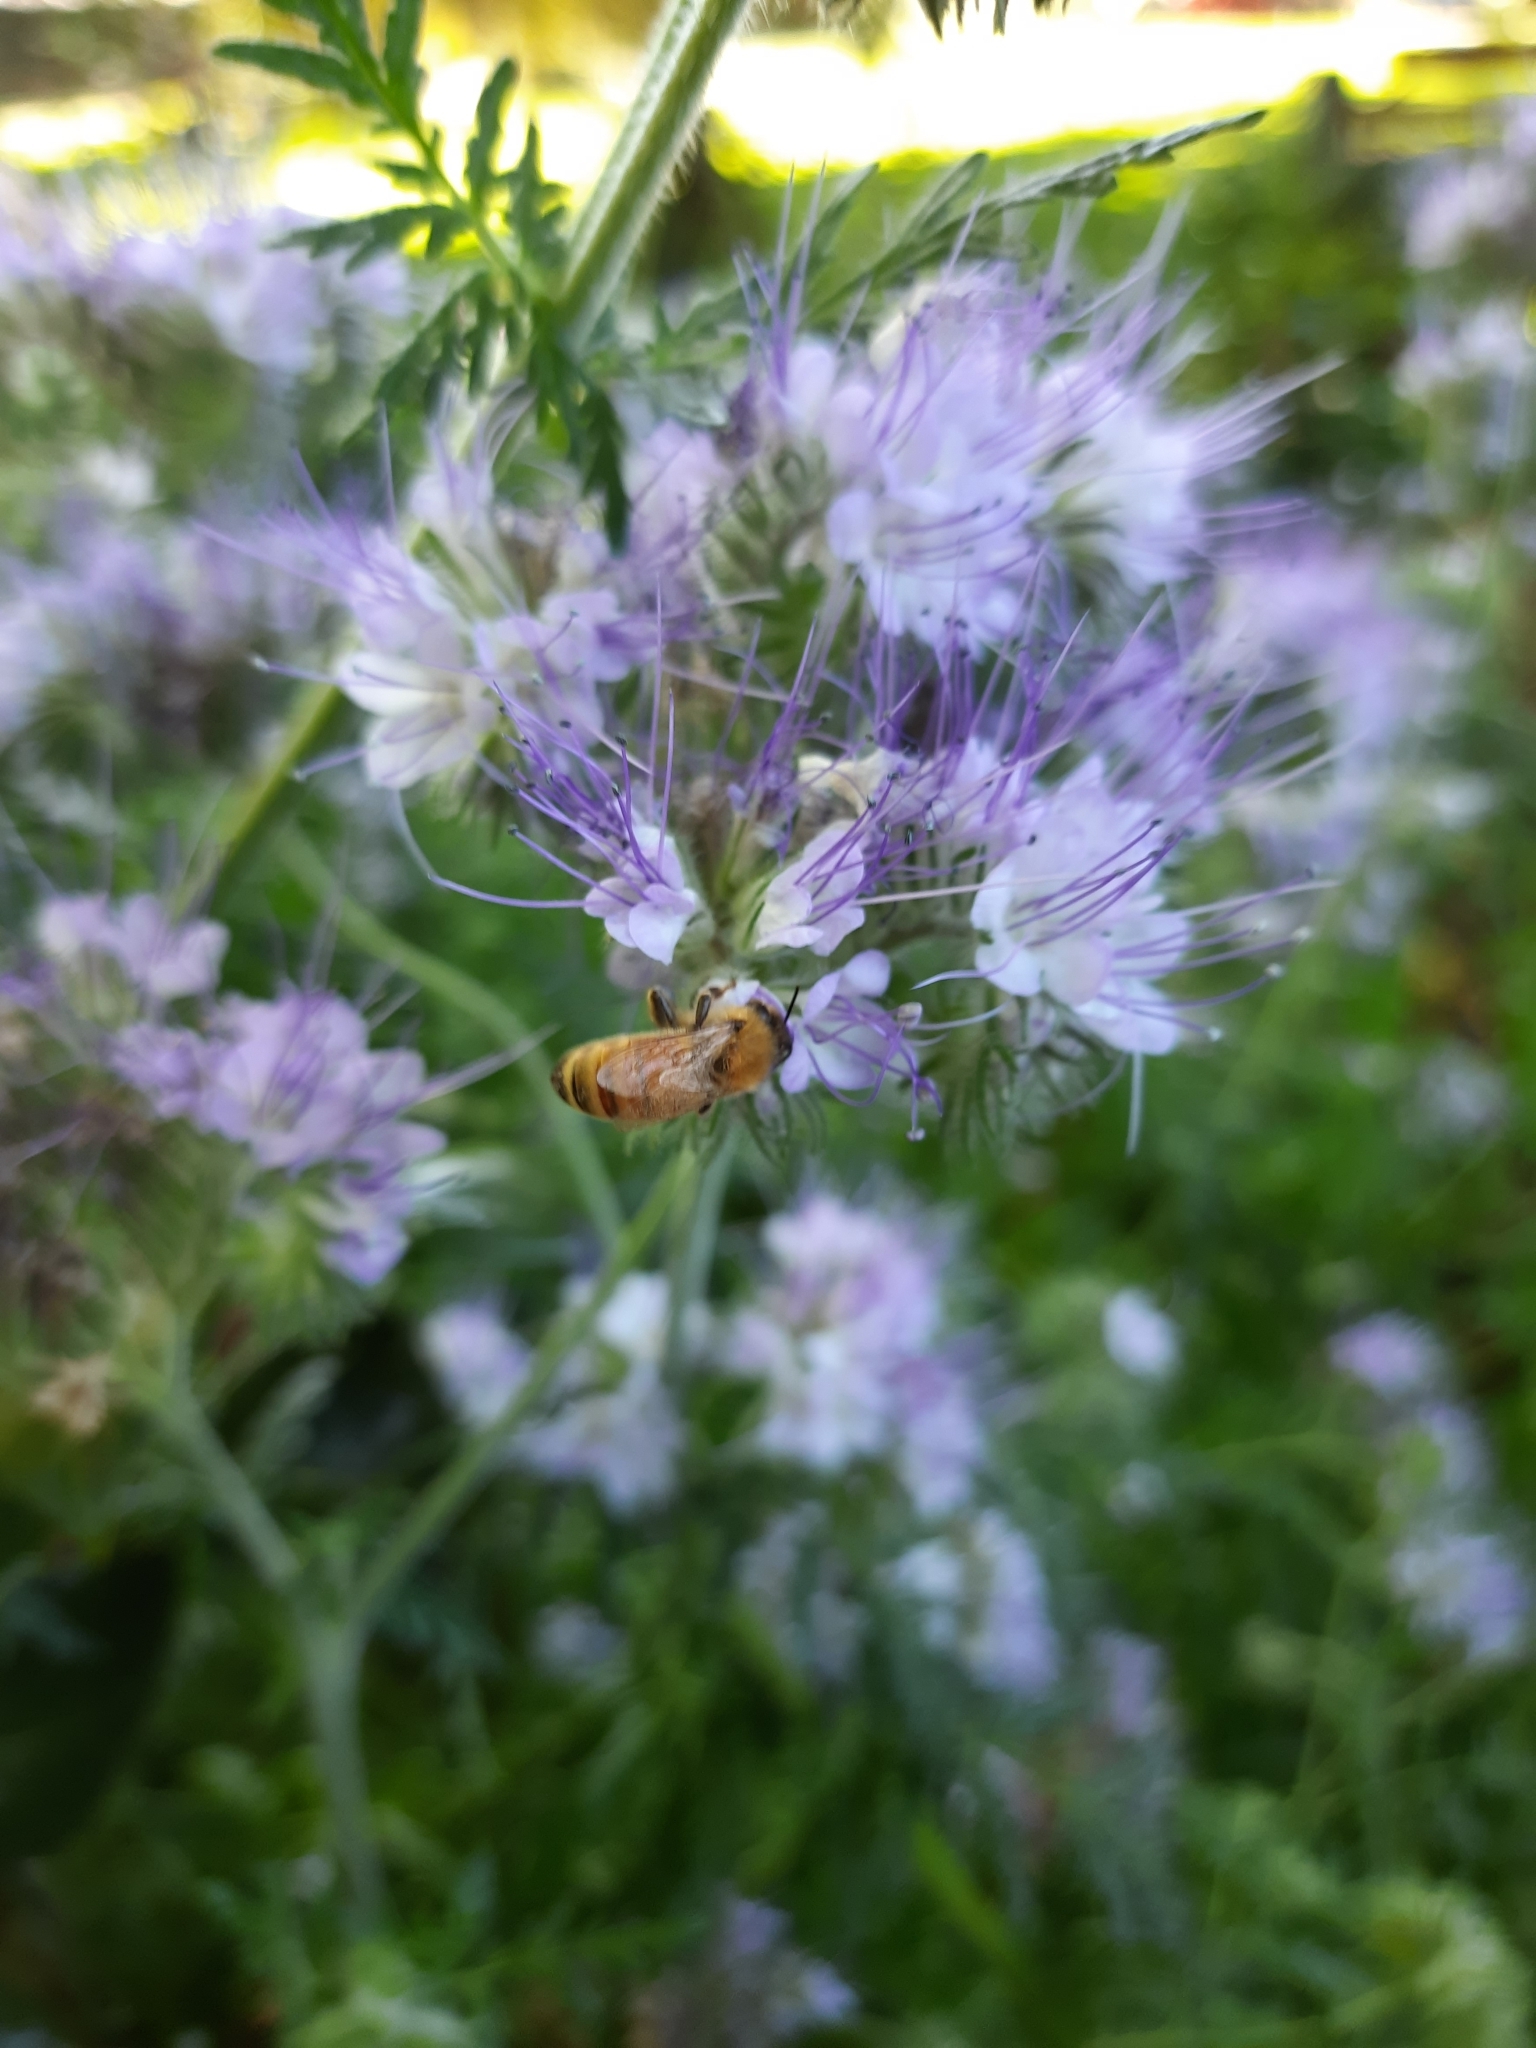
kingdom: Animalia
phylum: Arthropoda
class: Insecta
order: Hymenoptera
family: Apidae
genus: Apis
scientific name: Apis mellifera
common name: Honey bee
